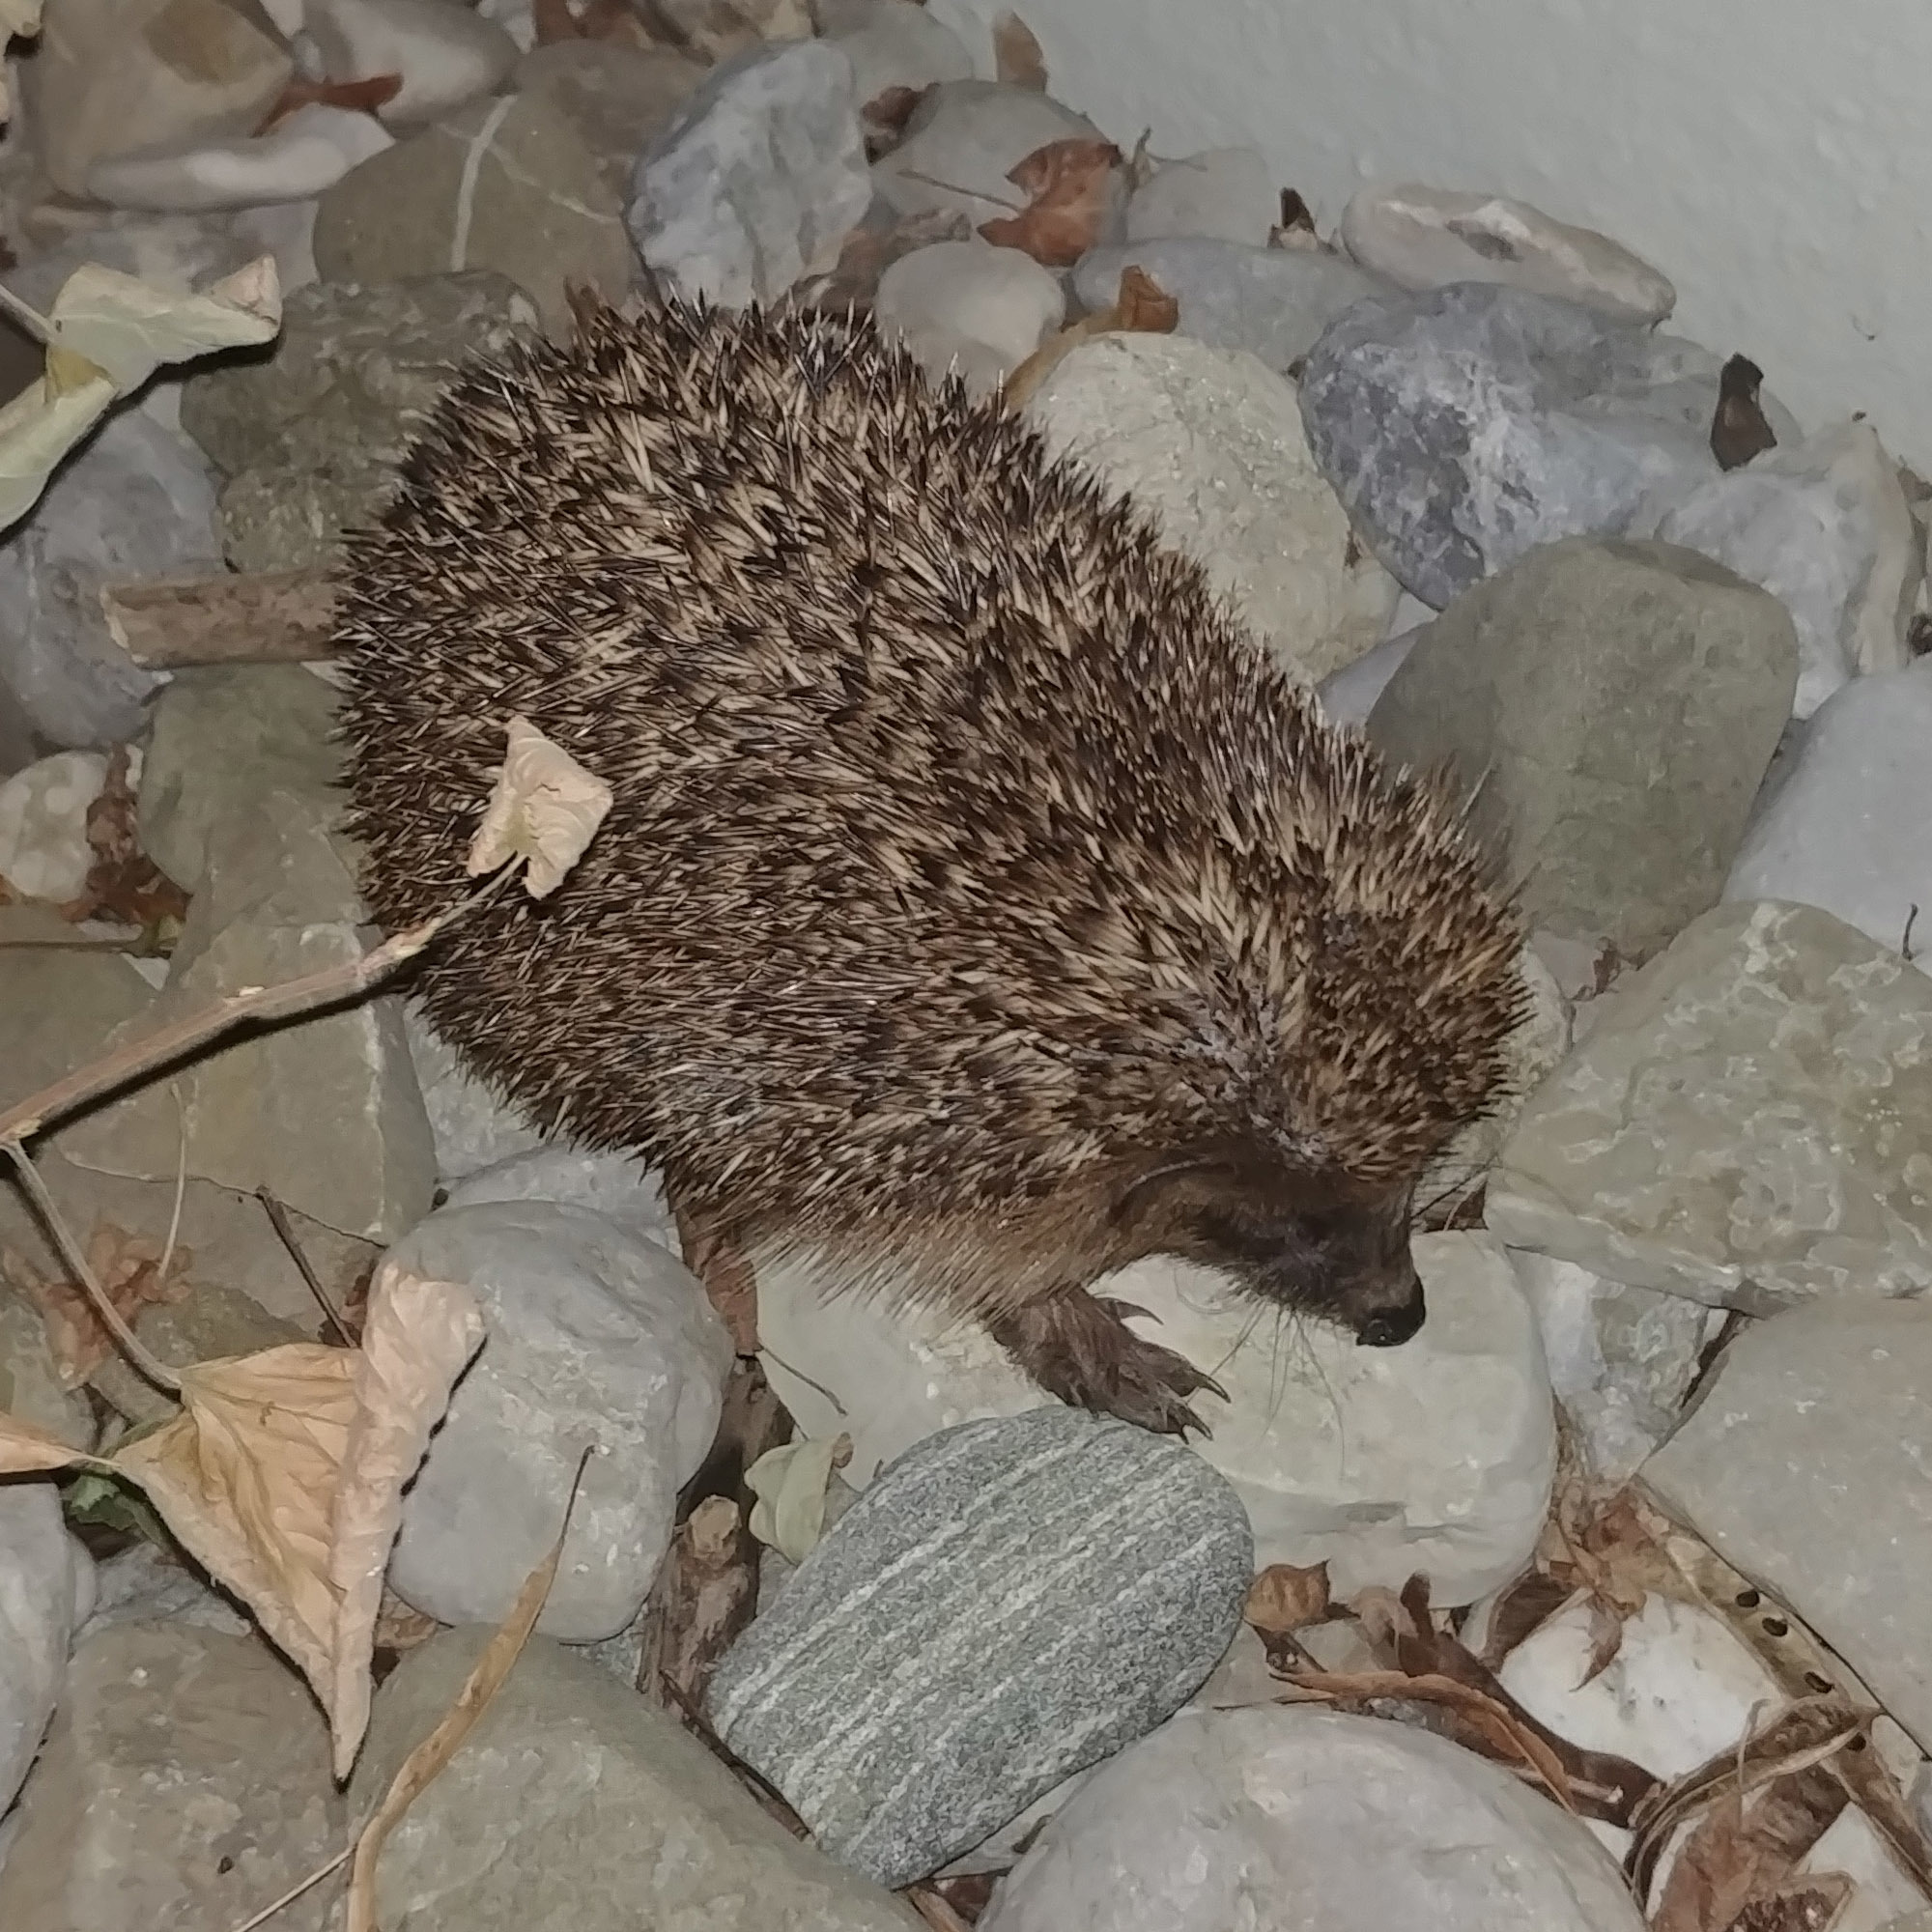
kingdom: Animalia
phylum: Chordata
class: Mammalia
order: Erinaceomorpha
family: Erinaceidae
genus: Erinaceus
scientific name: Erinaceus europaeus
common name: West european hedgehog
